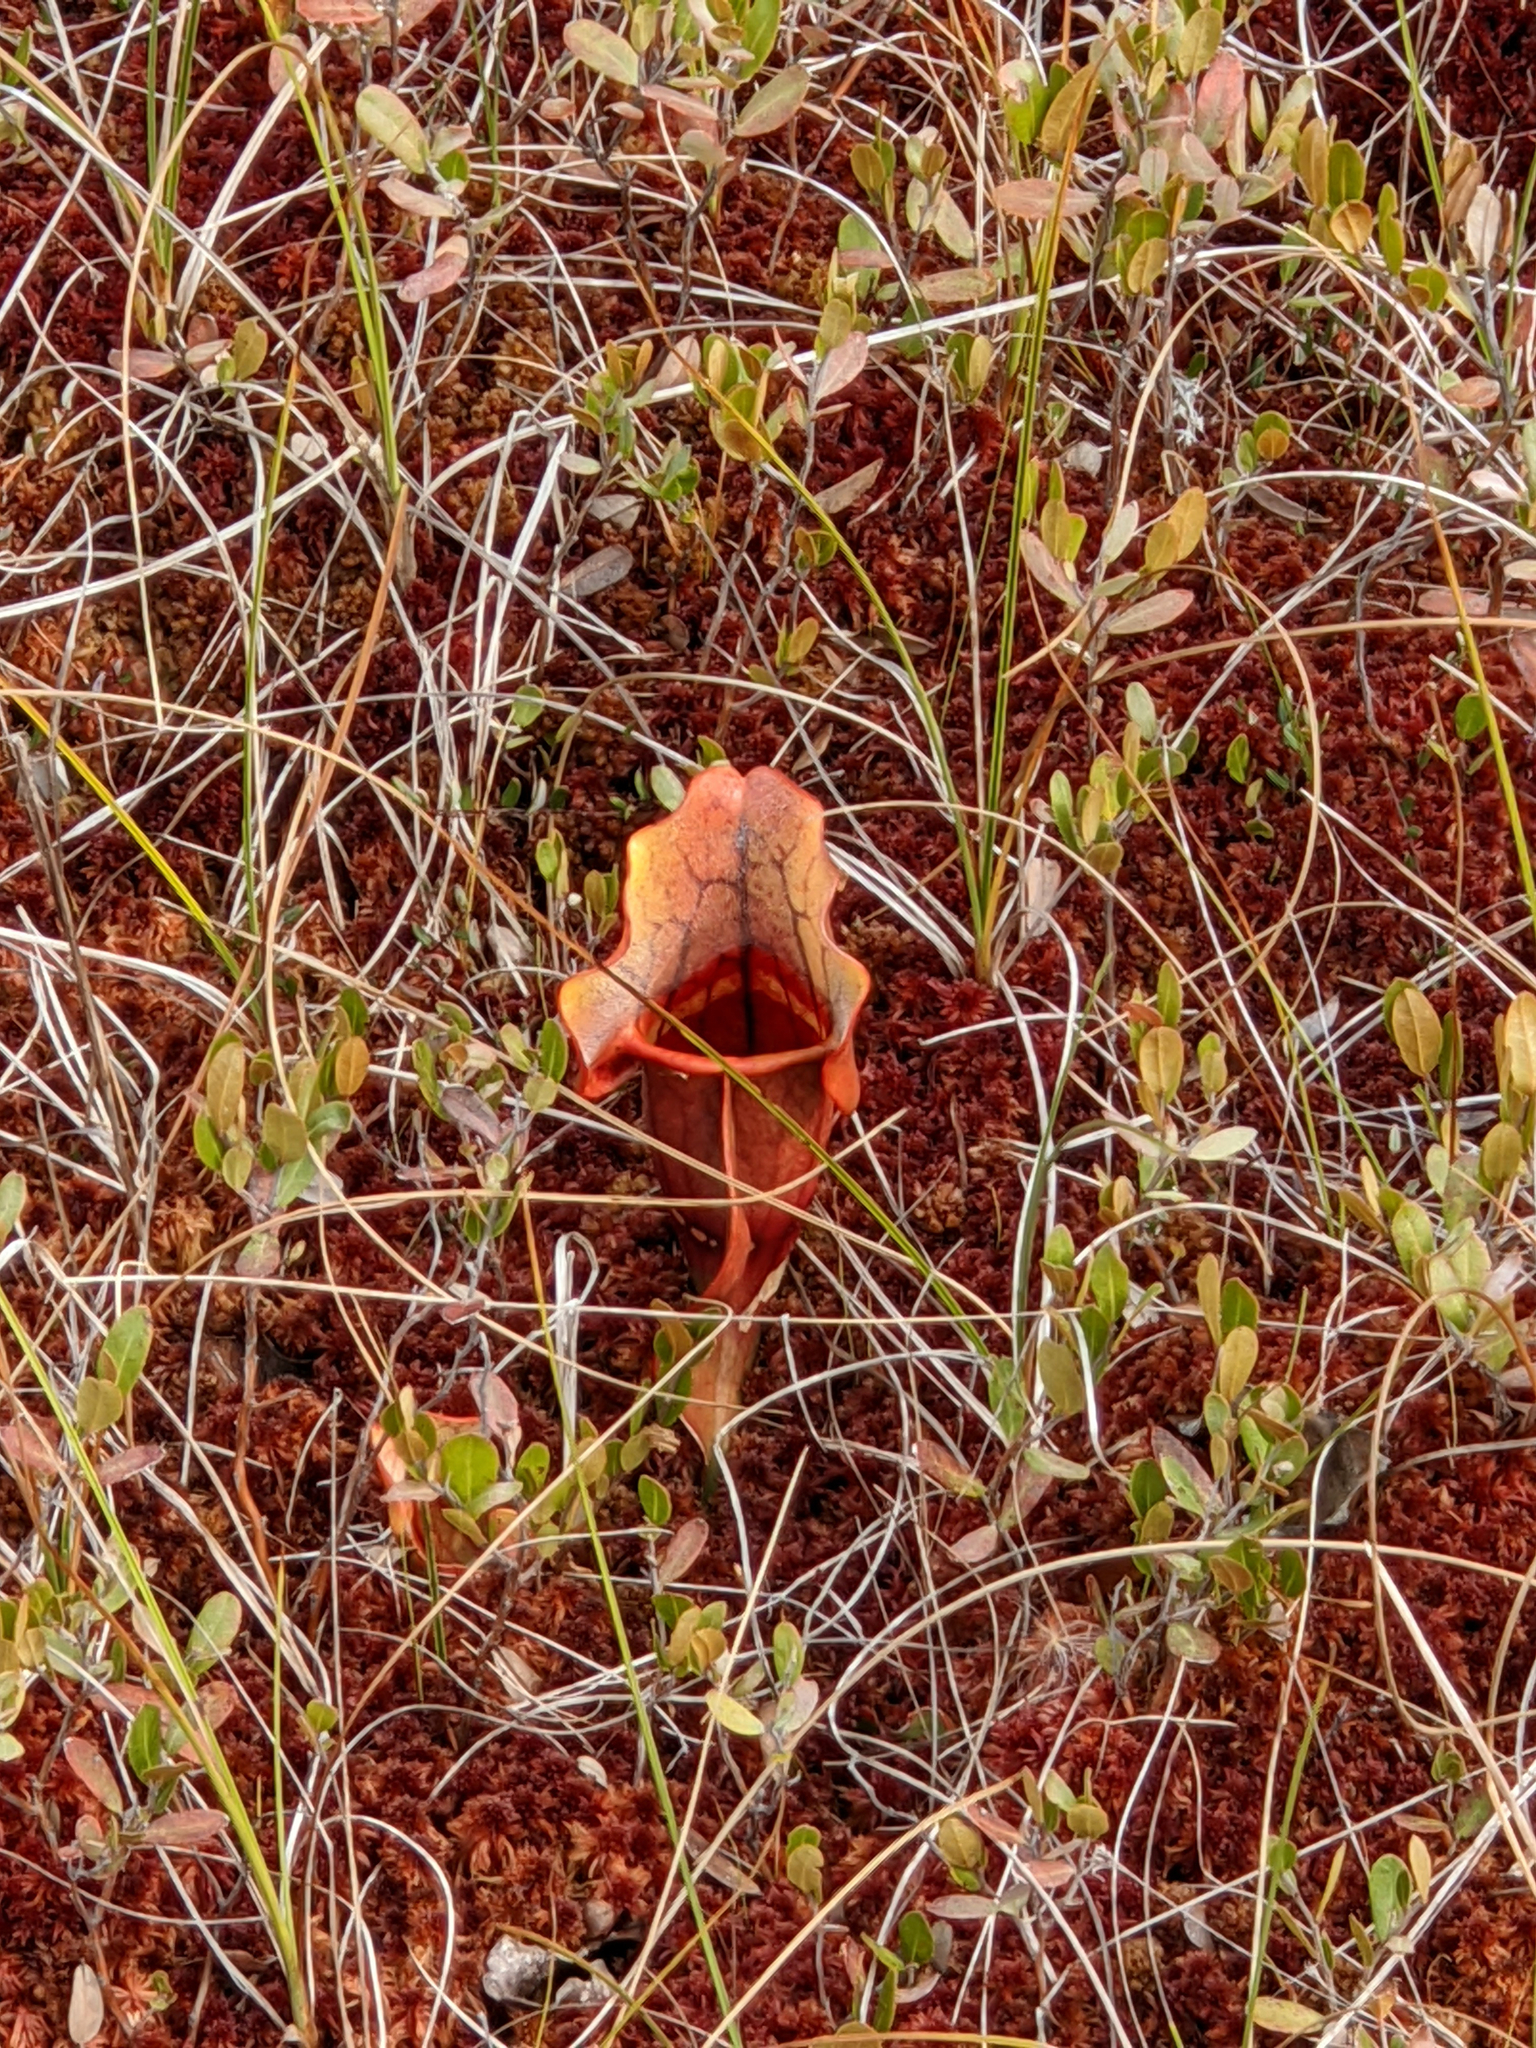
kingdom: Plantae
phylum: Tracheophyta
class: Magnoliopsida
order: Ericales
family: Sarraceniaceae
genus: Sarracenia
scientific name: Sarracenia purpurea
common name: Pitcherplant
